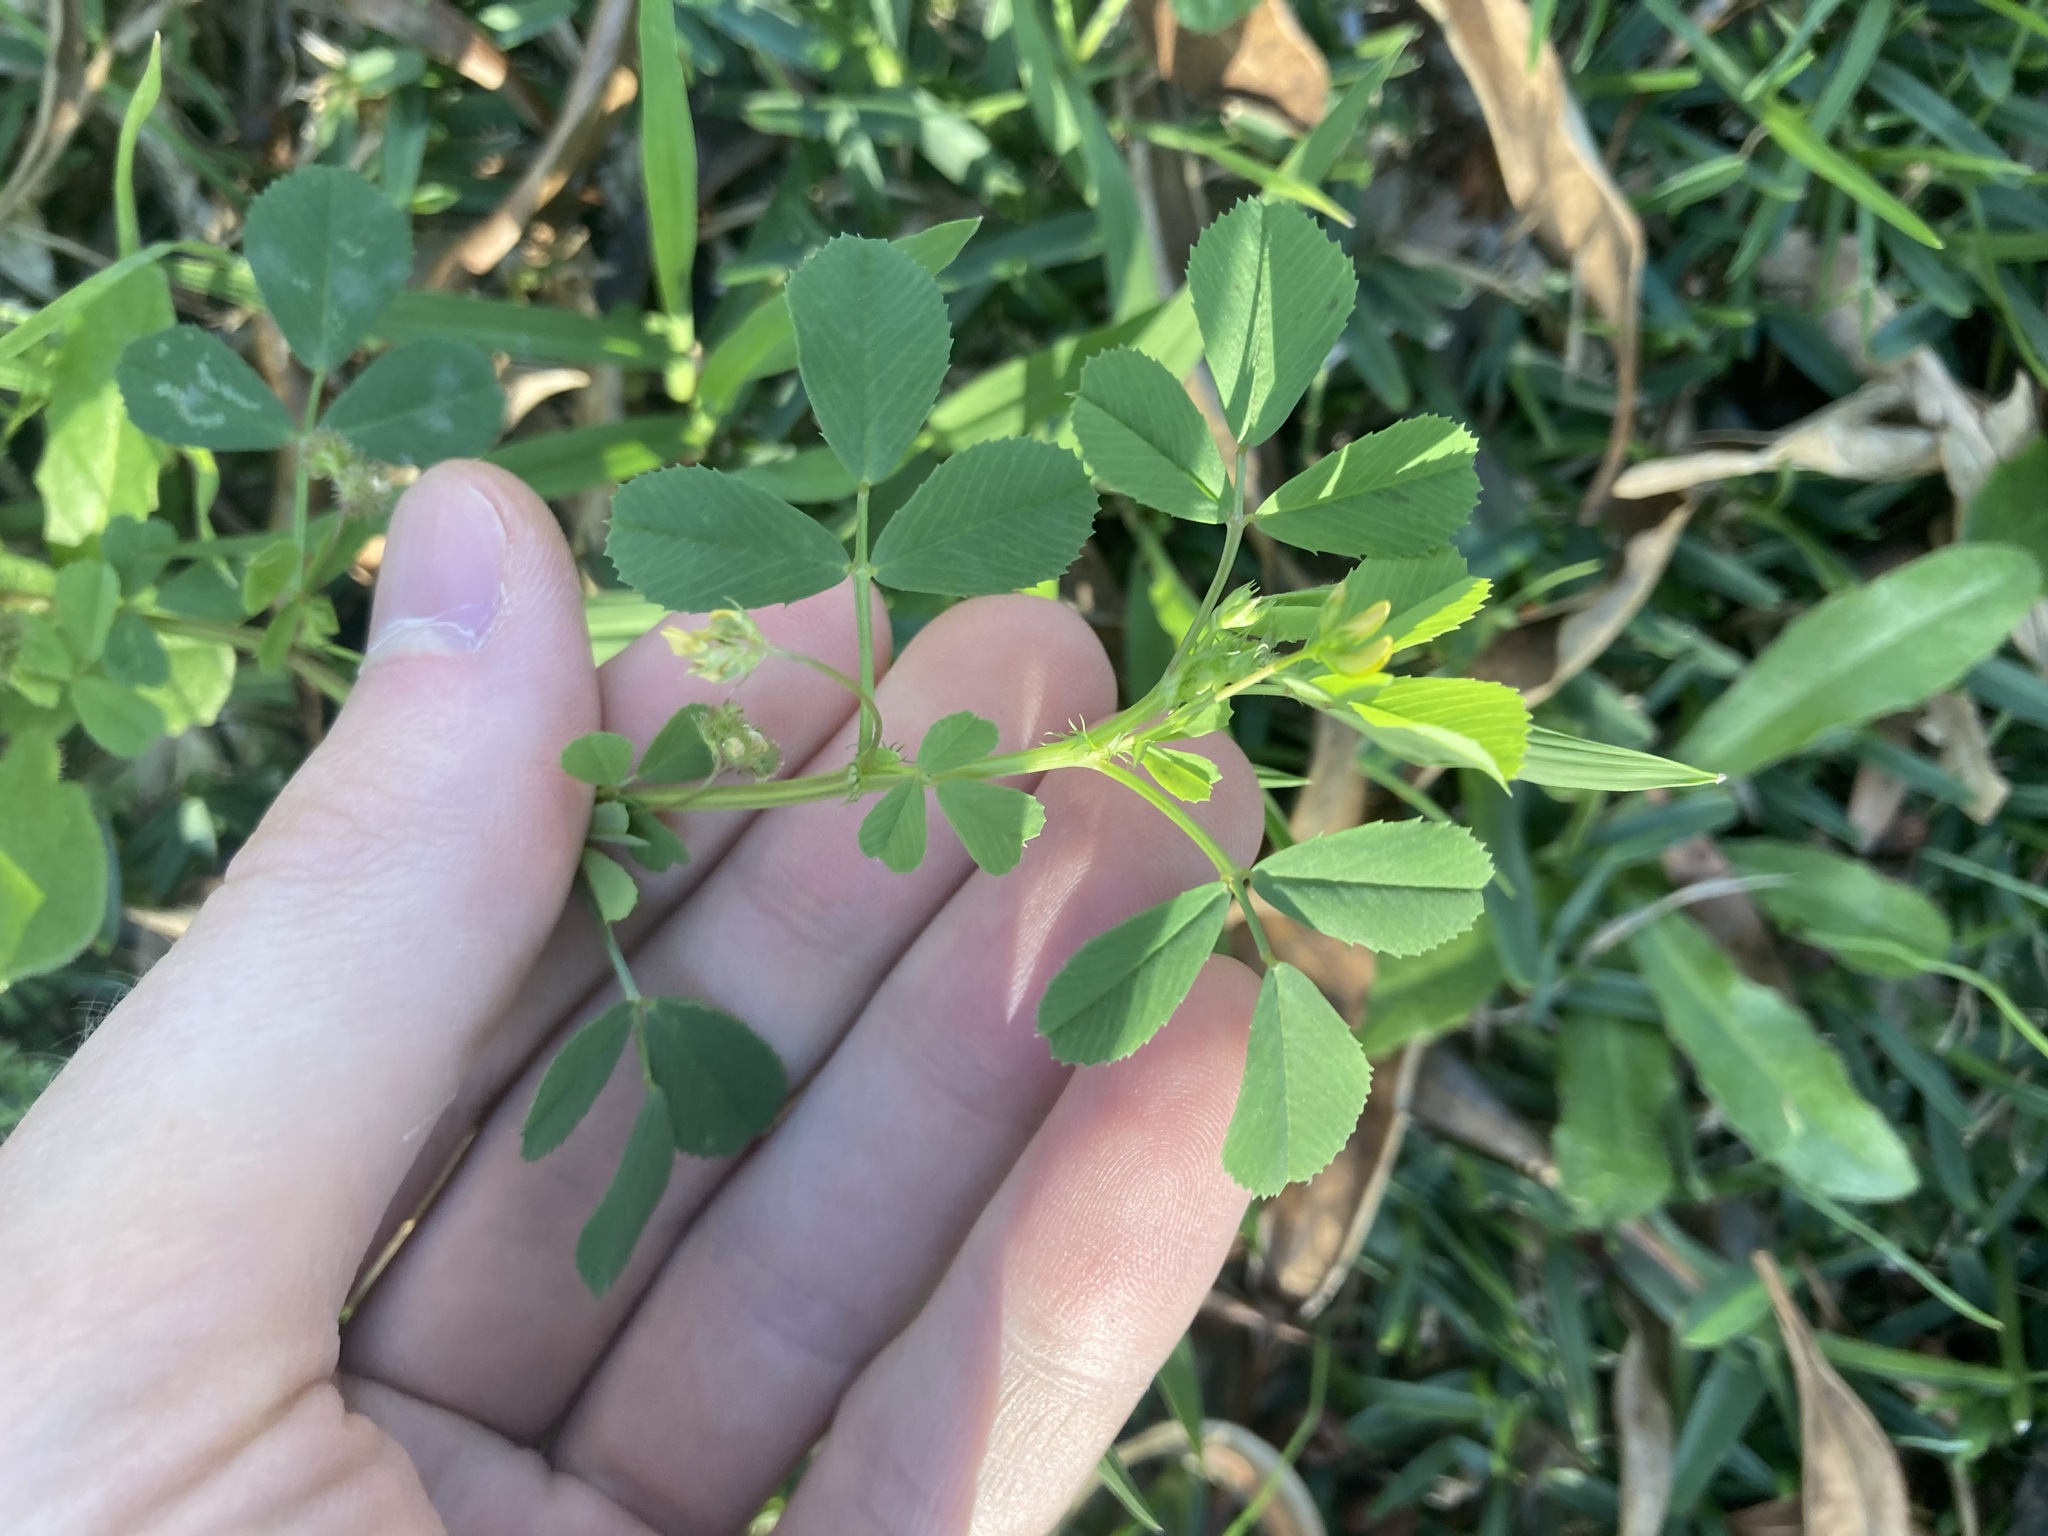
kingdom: Plantae
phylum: Tracheophyta
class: Magnoliopsida
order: Fabales
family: Fabaceae
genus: Medicago
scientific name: Medicago polymorpha
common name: Burclover
